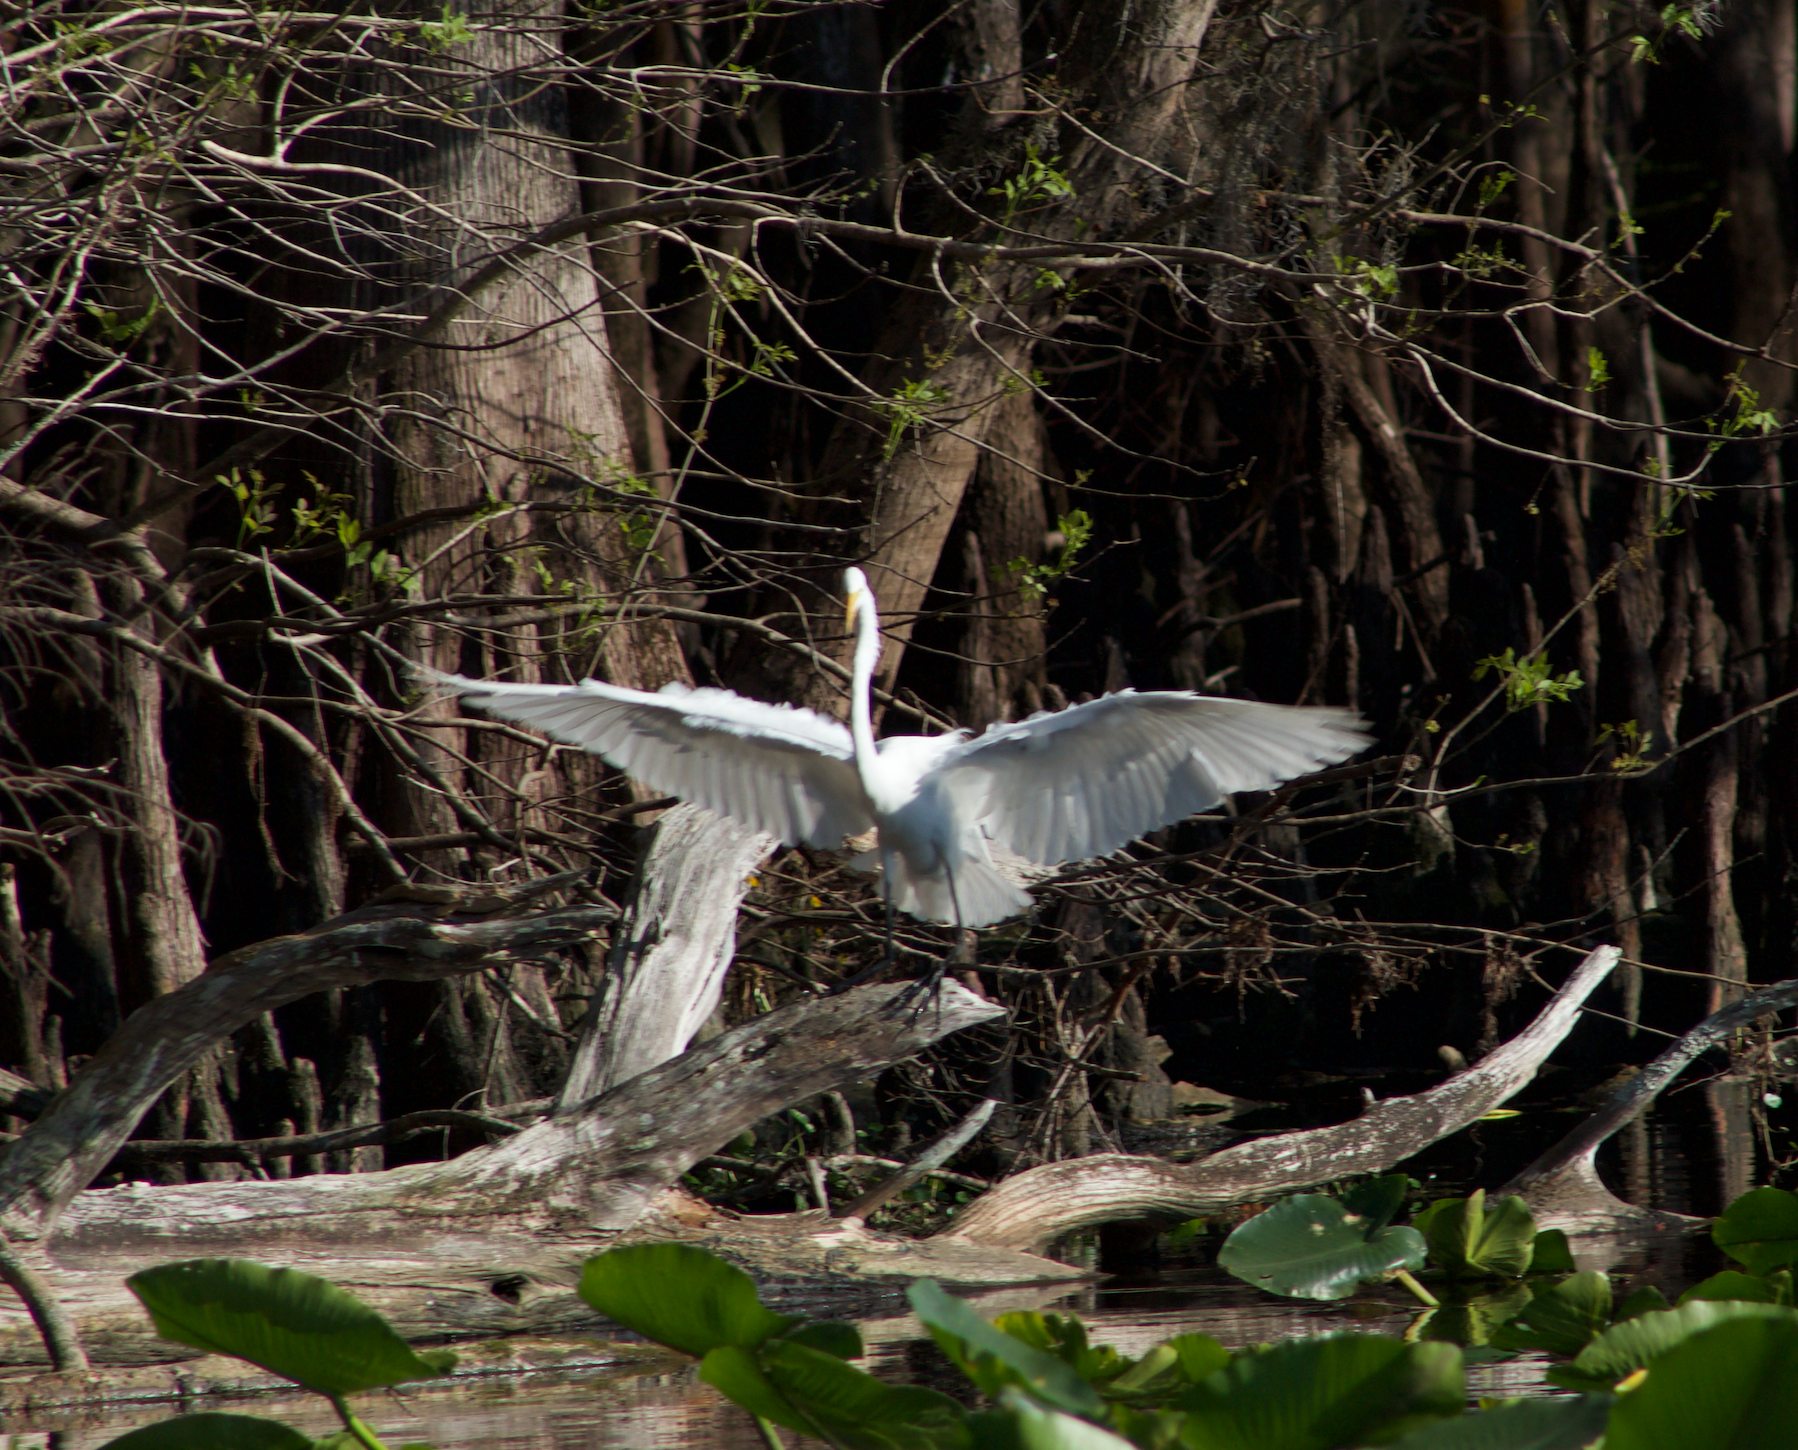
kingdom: Animalia
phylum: Chordata
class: Aves
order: Pelecaniformes
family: Ardeidae
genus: Ardea
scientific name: Ardea alba
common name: Great egret
